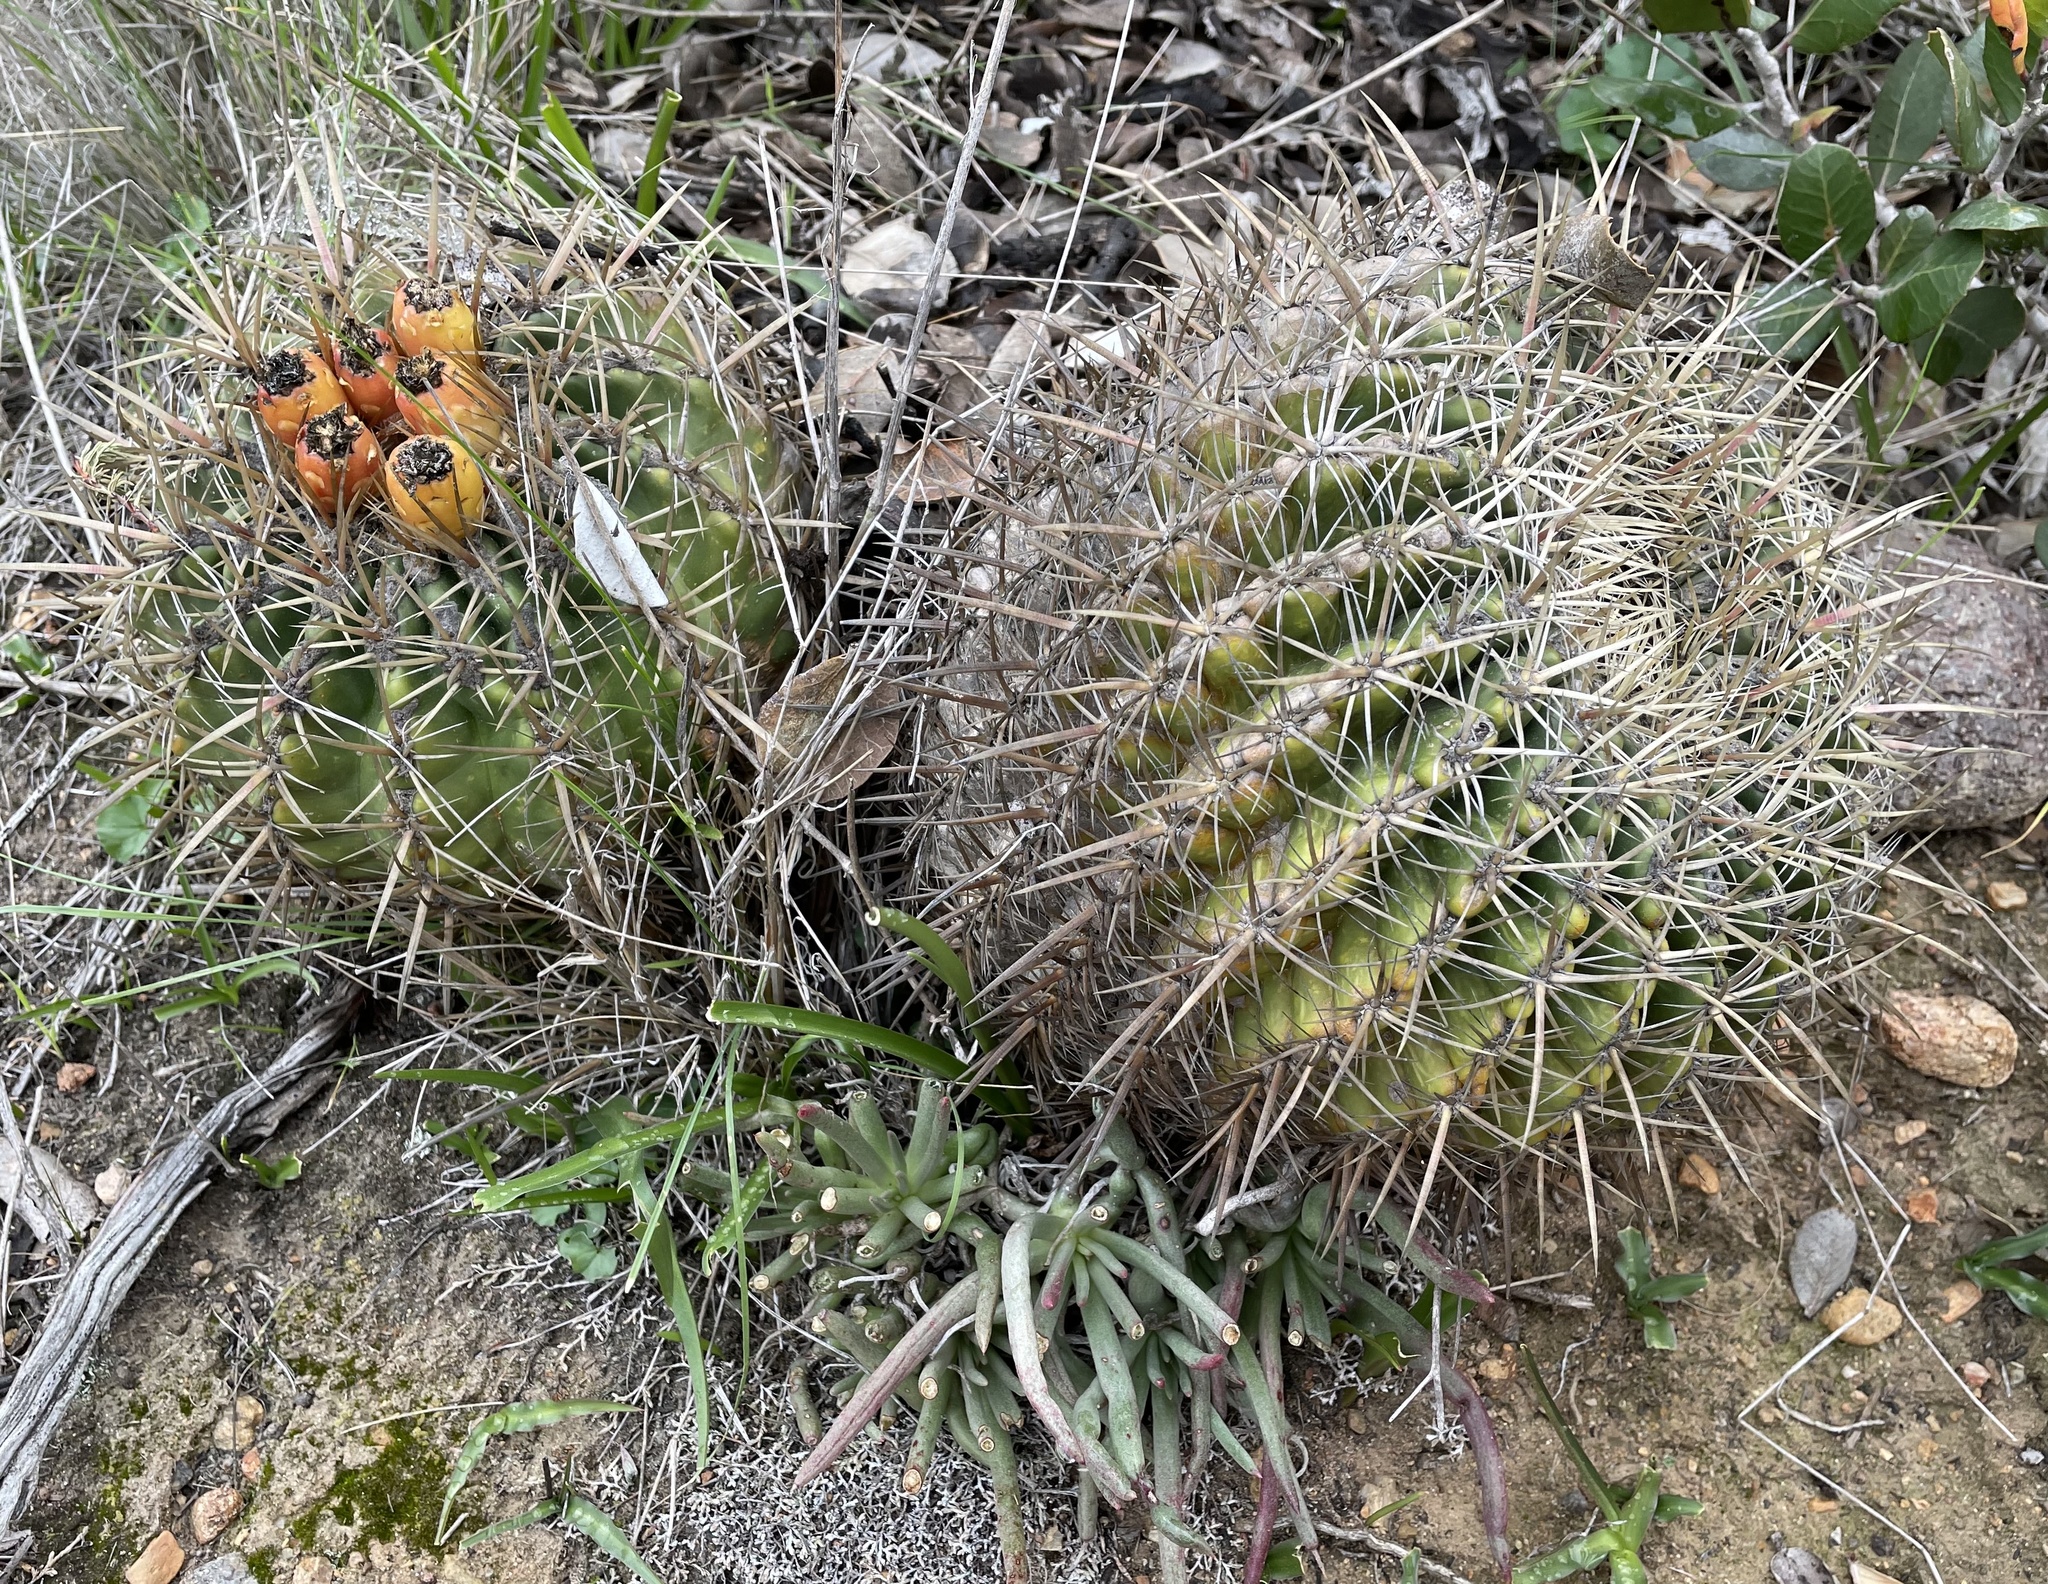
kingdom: Plantae
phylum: Tracheophyta
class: Magnoliopsida
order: Caryophyllales
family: Cactaceae
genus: Ferocactus
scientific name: Ferocactus viridescens
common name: San diego barrel cactus
